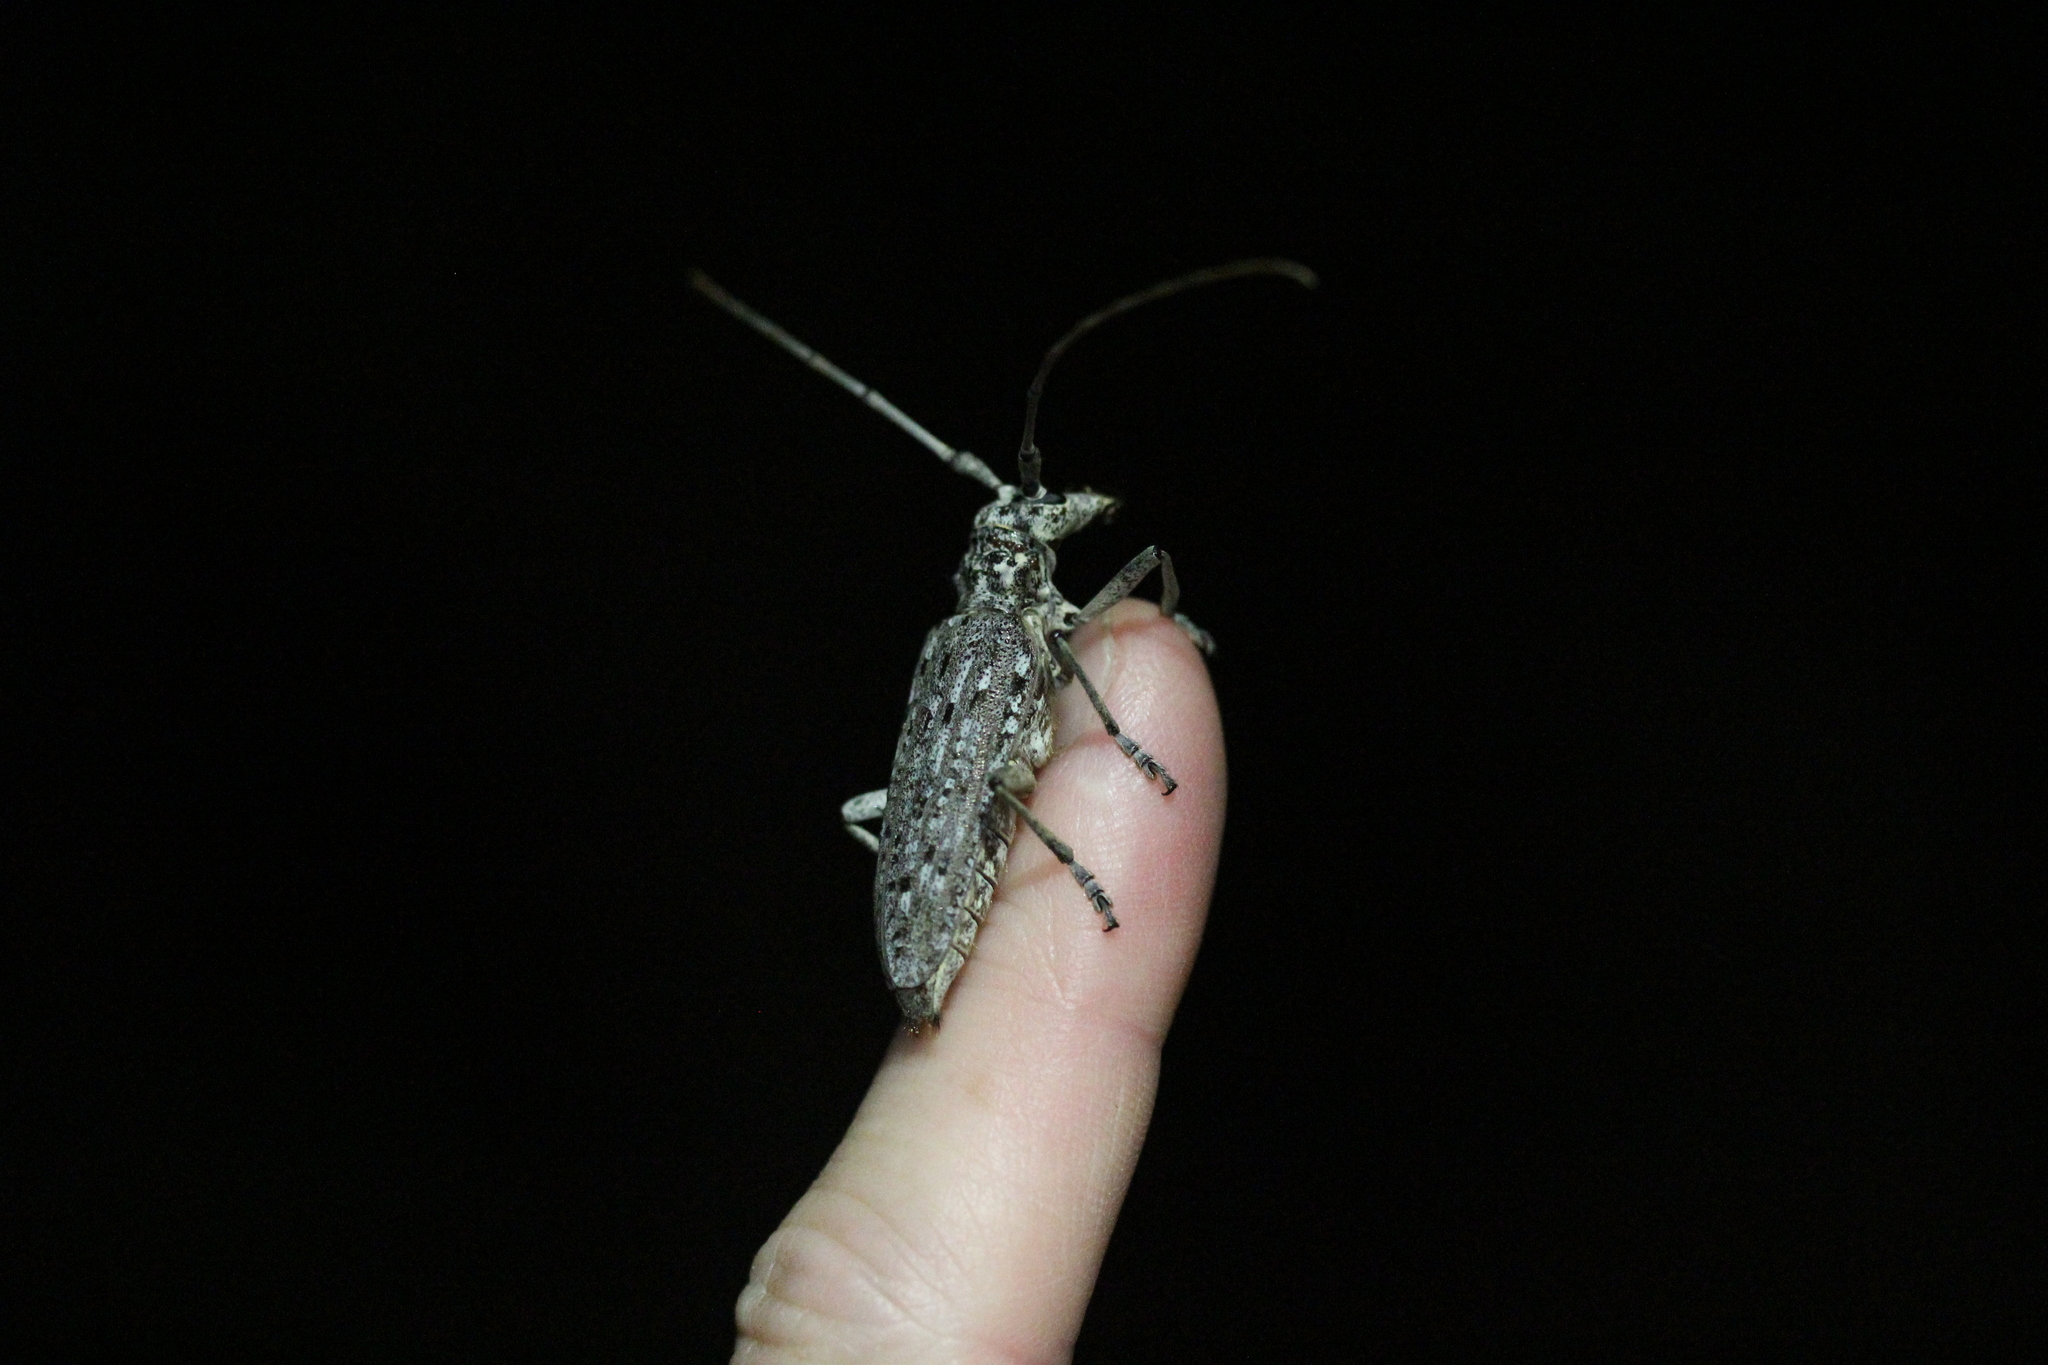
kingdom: Animalia
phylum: Arthropoda
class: Insecta
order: Coleoptera
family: Cerambycidae
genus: Monochamus
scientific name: Monochamus notatus
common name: Northeastern pine sawyer beetle
